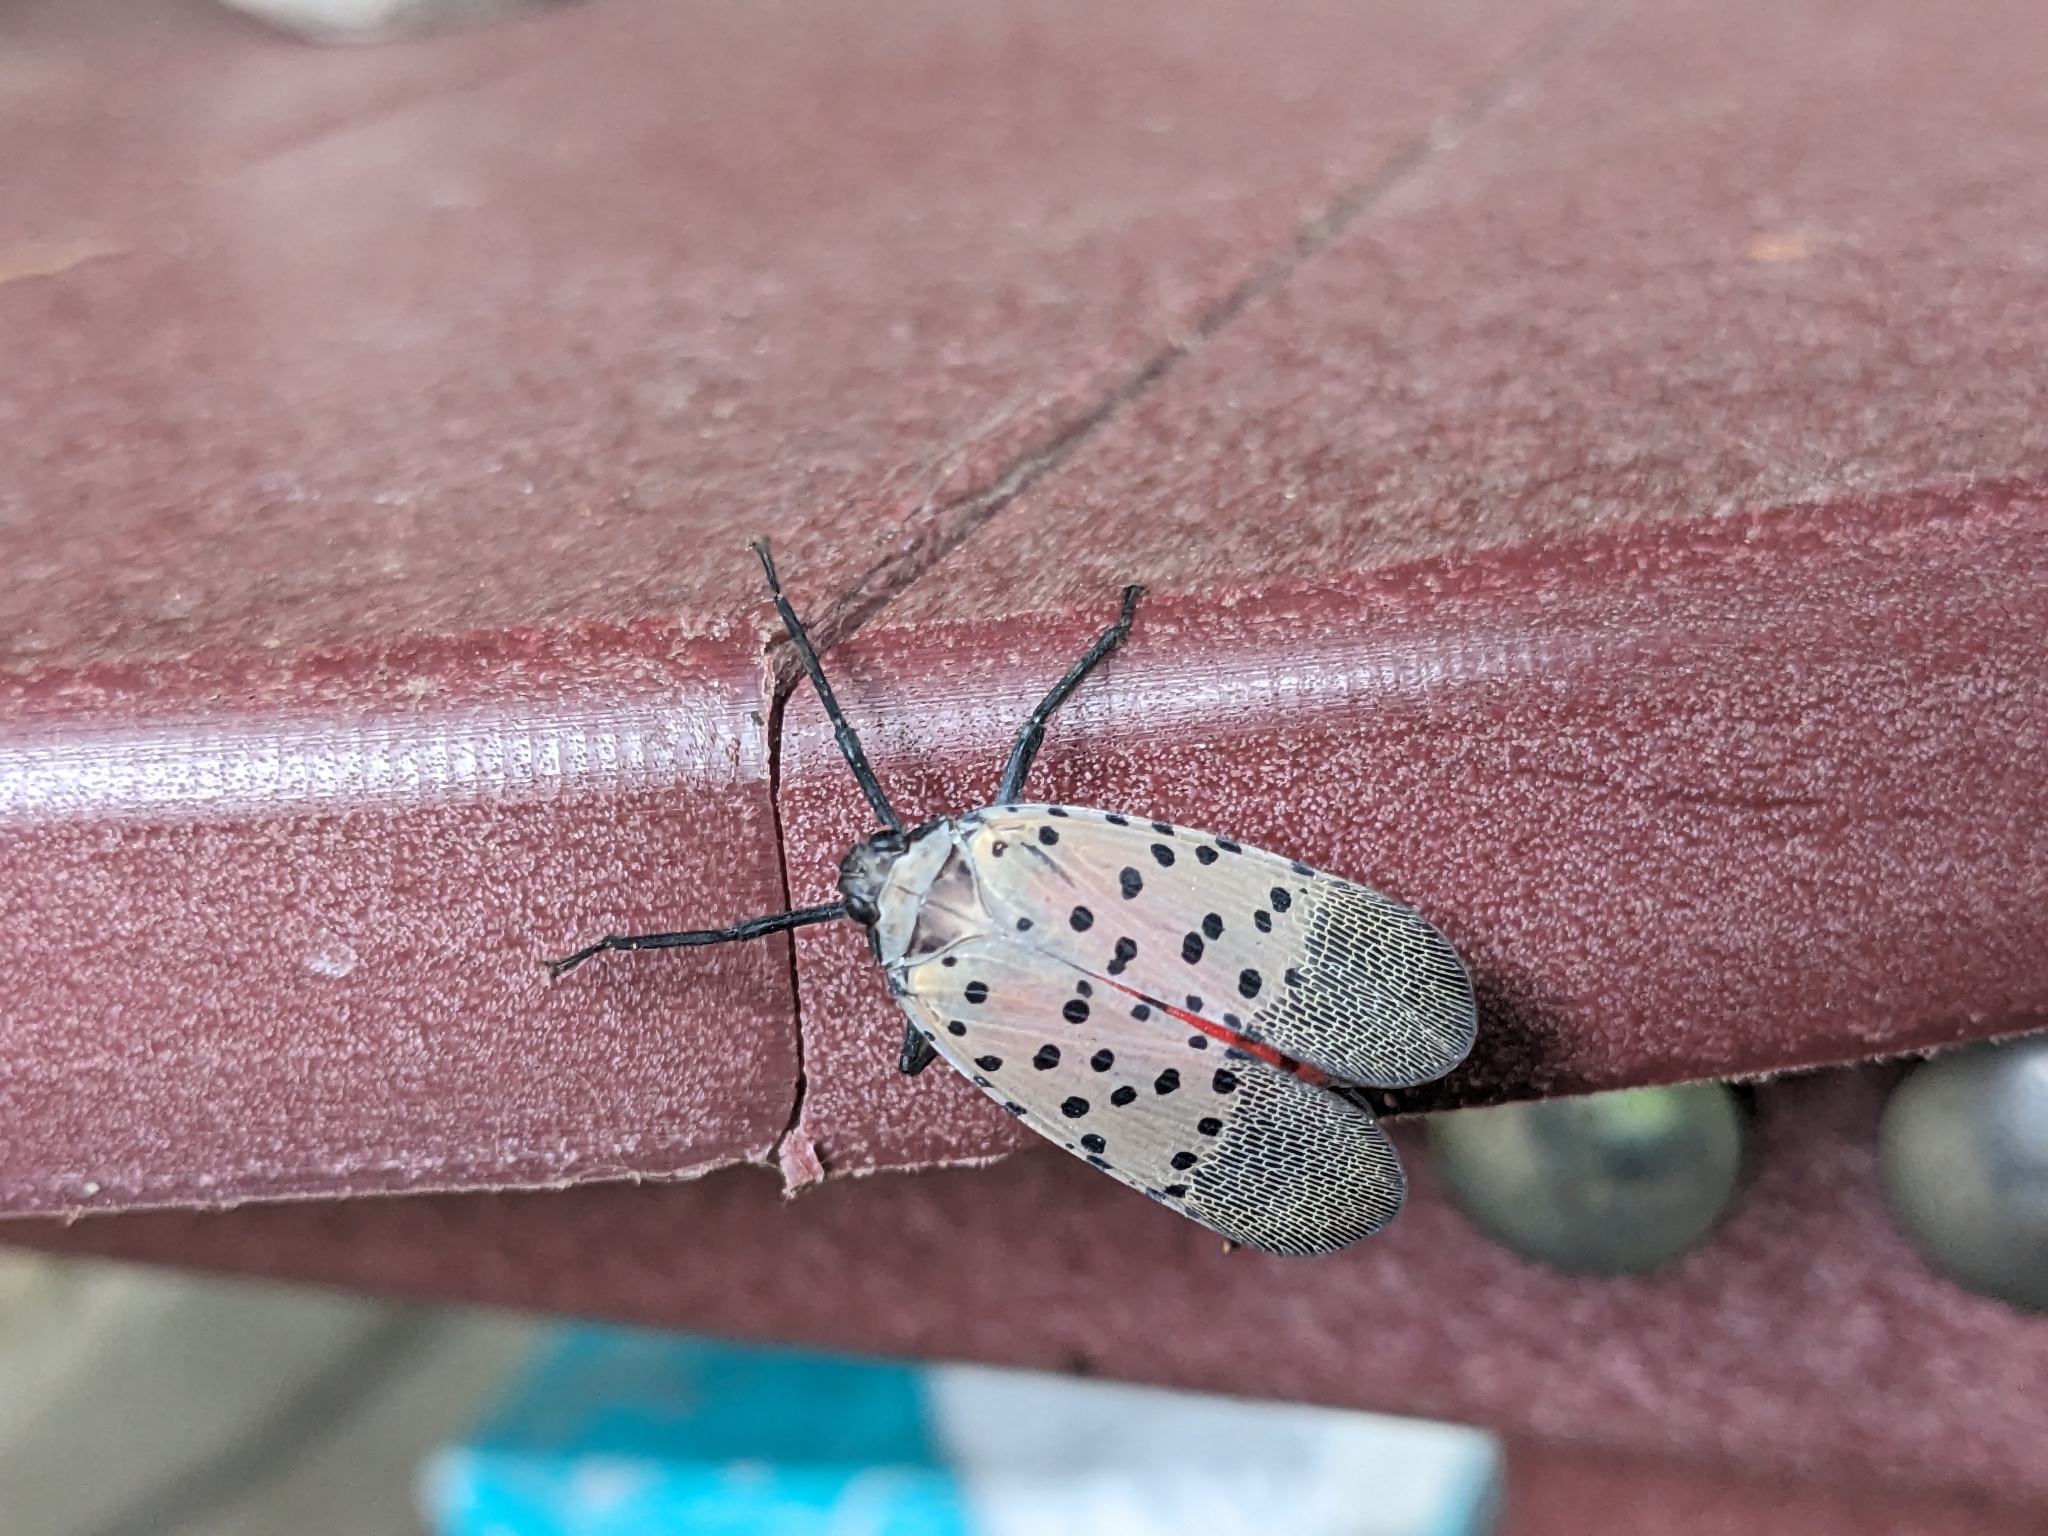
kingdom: Animalia
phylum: Arthropoda
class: Insecta
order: Hemiptera
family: Fulgoridae
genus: Lycorma
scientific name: Lycorma delicatula
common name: Spotted lanternfly
